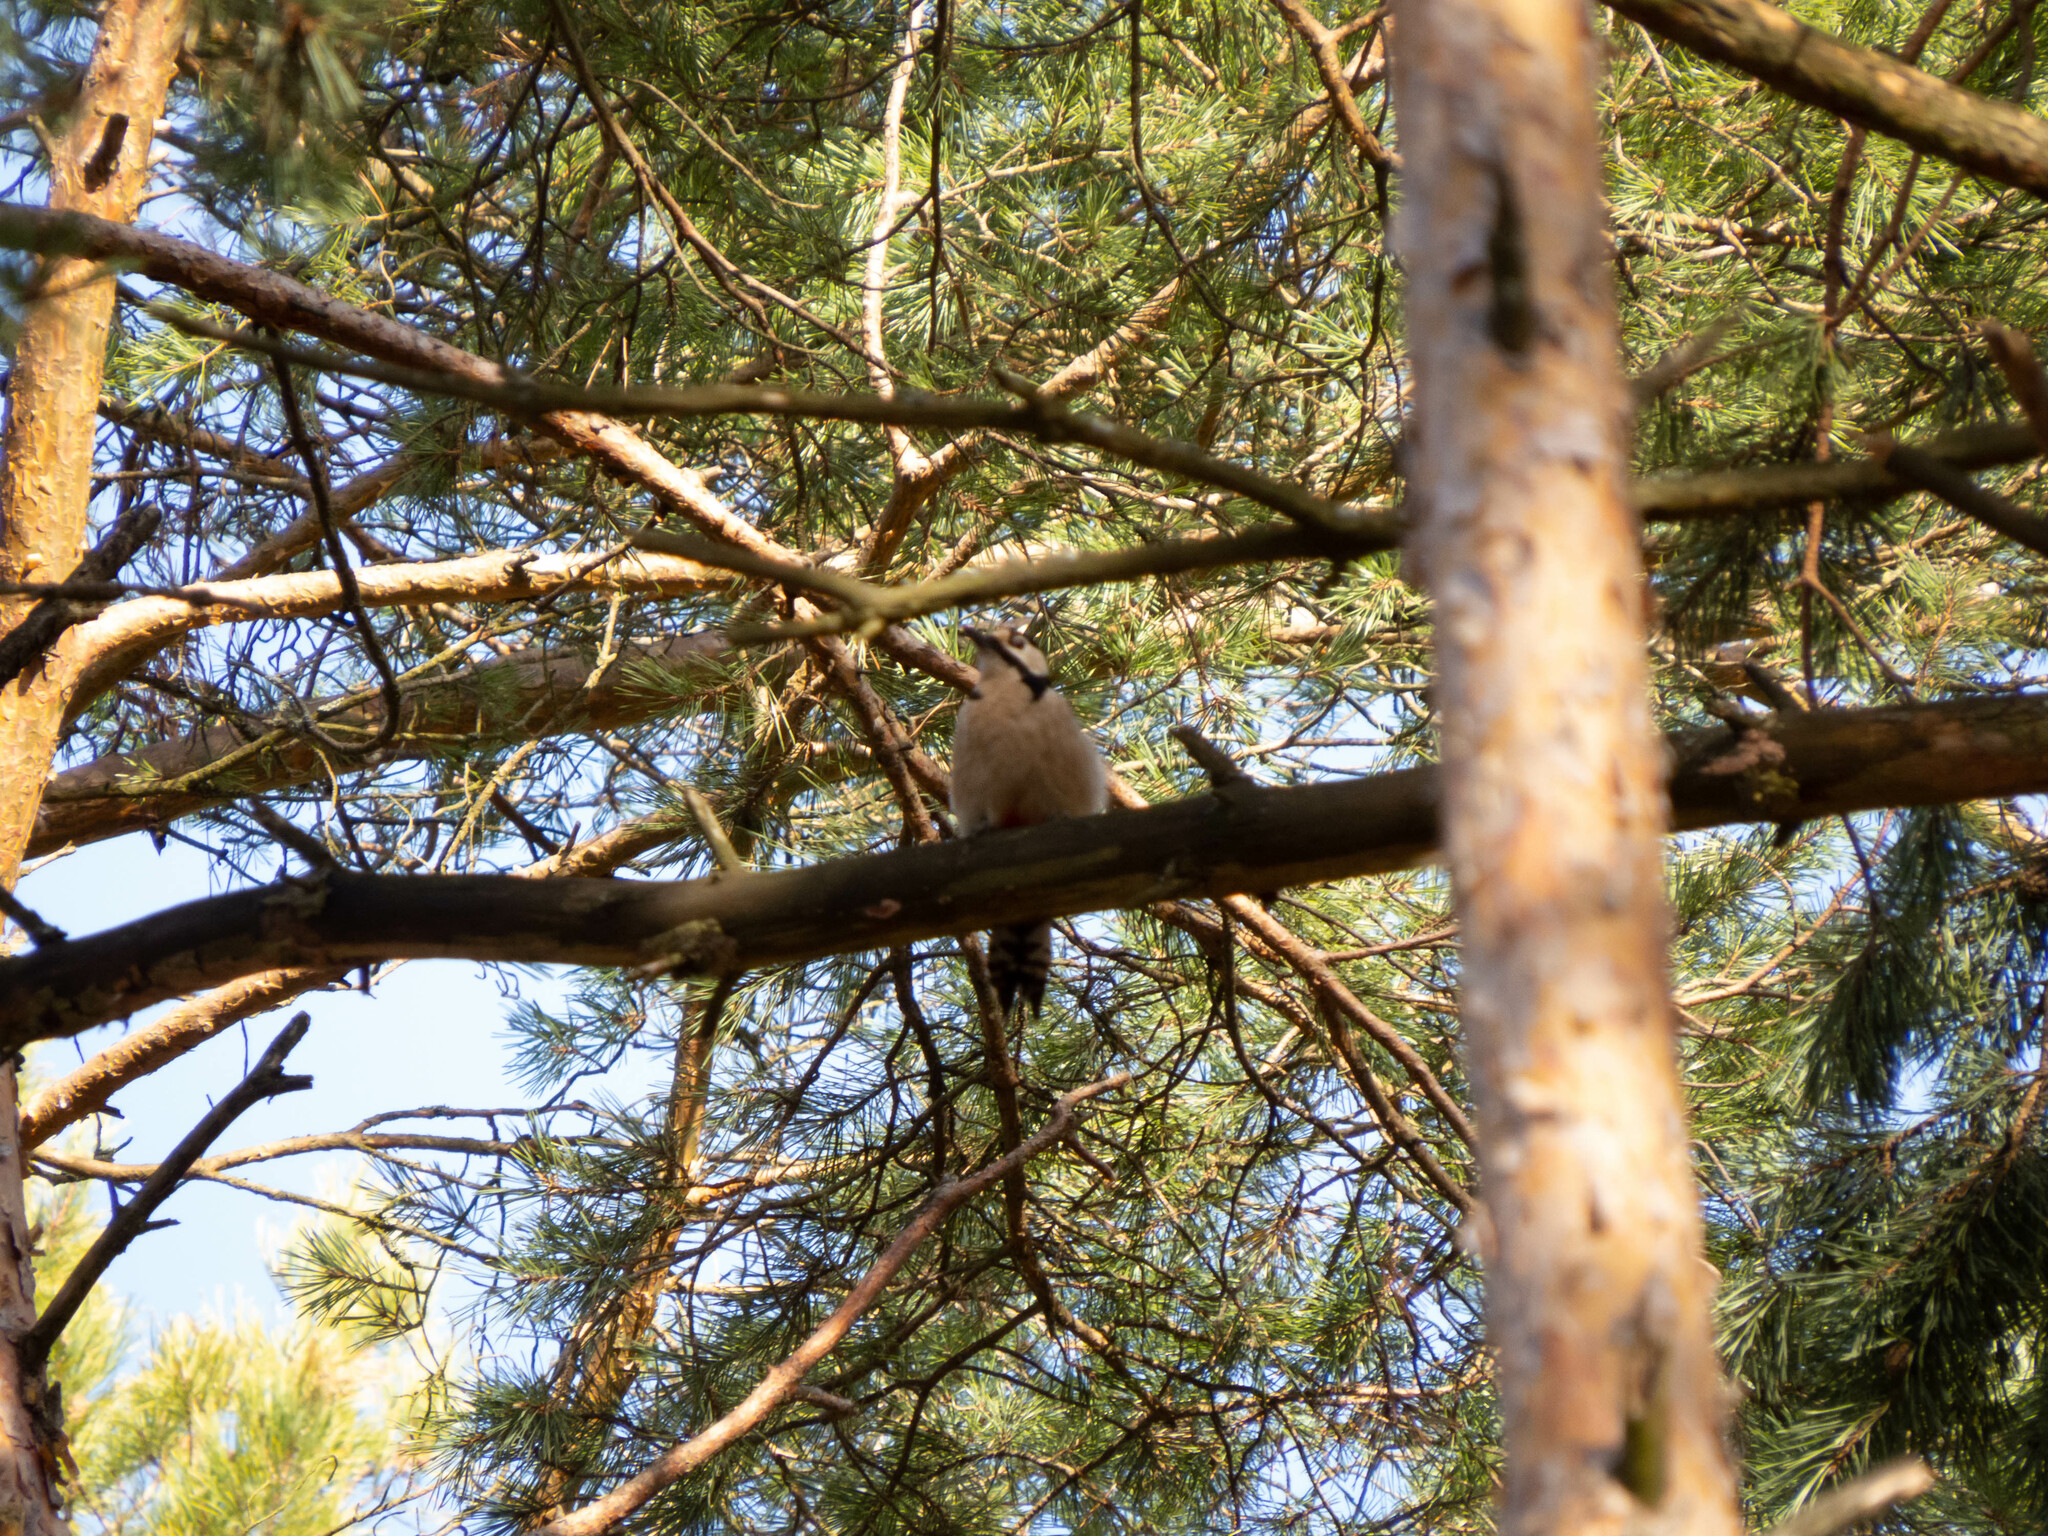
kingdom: Animalia
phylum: Chordata
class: Aves
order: Piciformes
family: Picidae
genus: Dendrocopos
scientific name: Dendrocopos major
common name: Great spotted woodpecker
